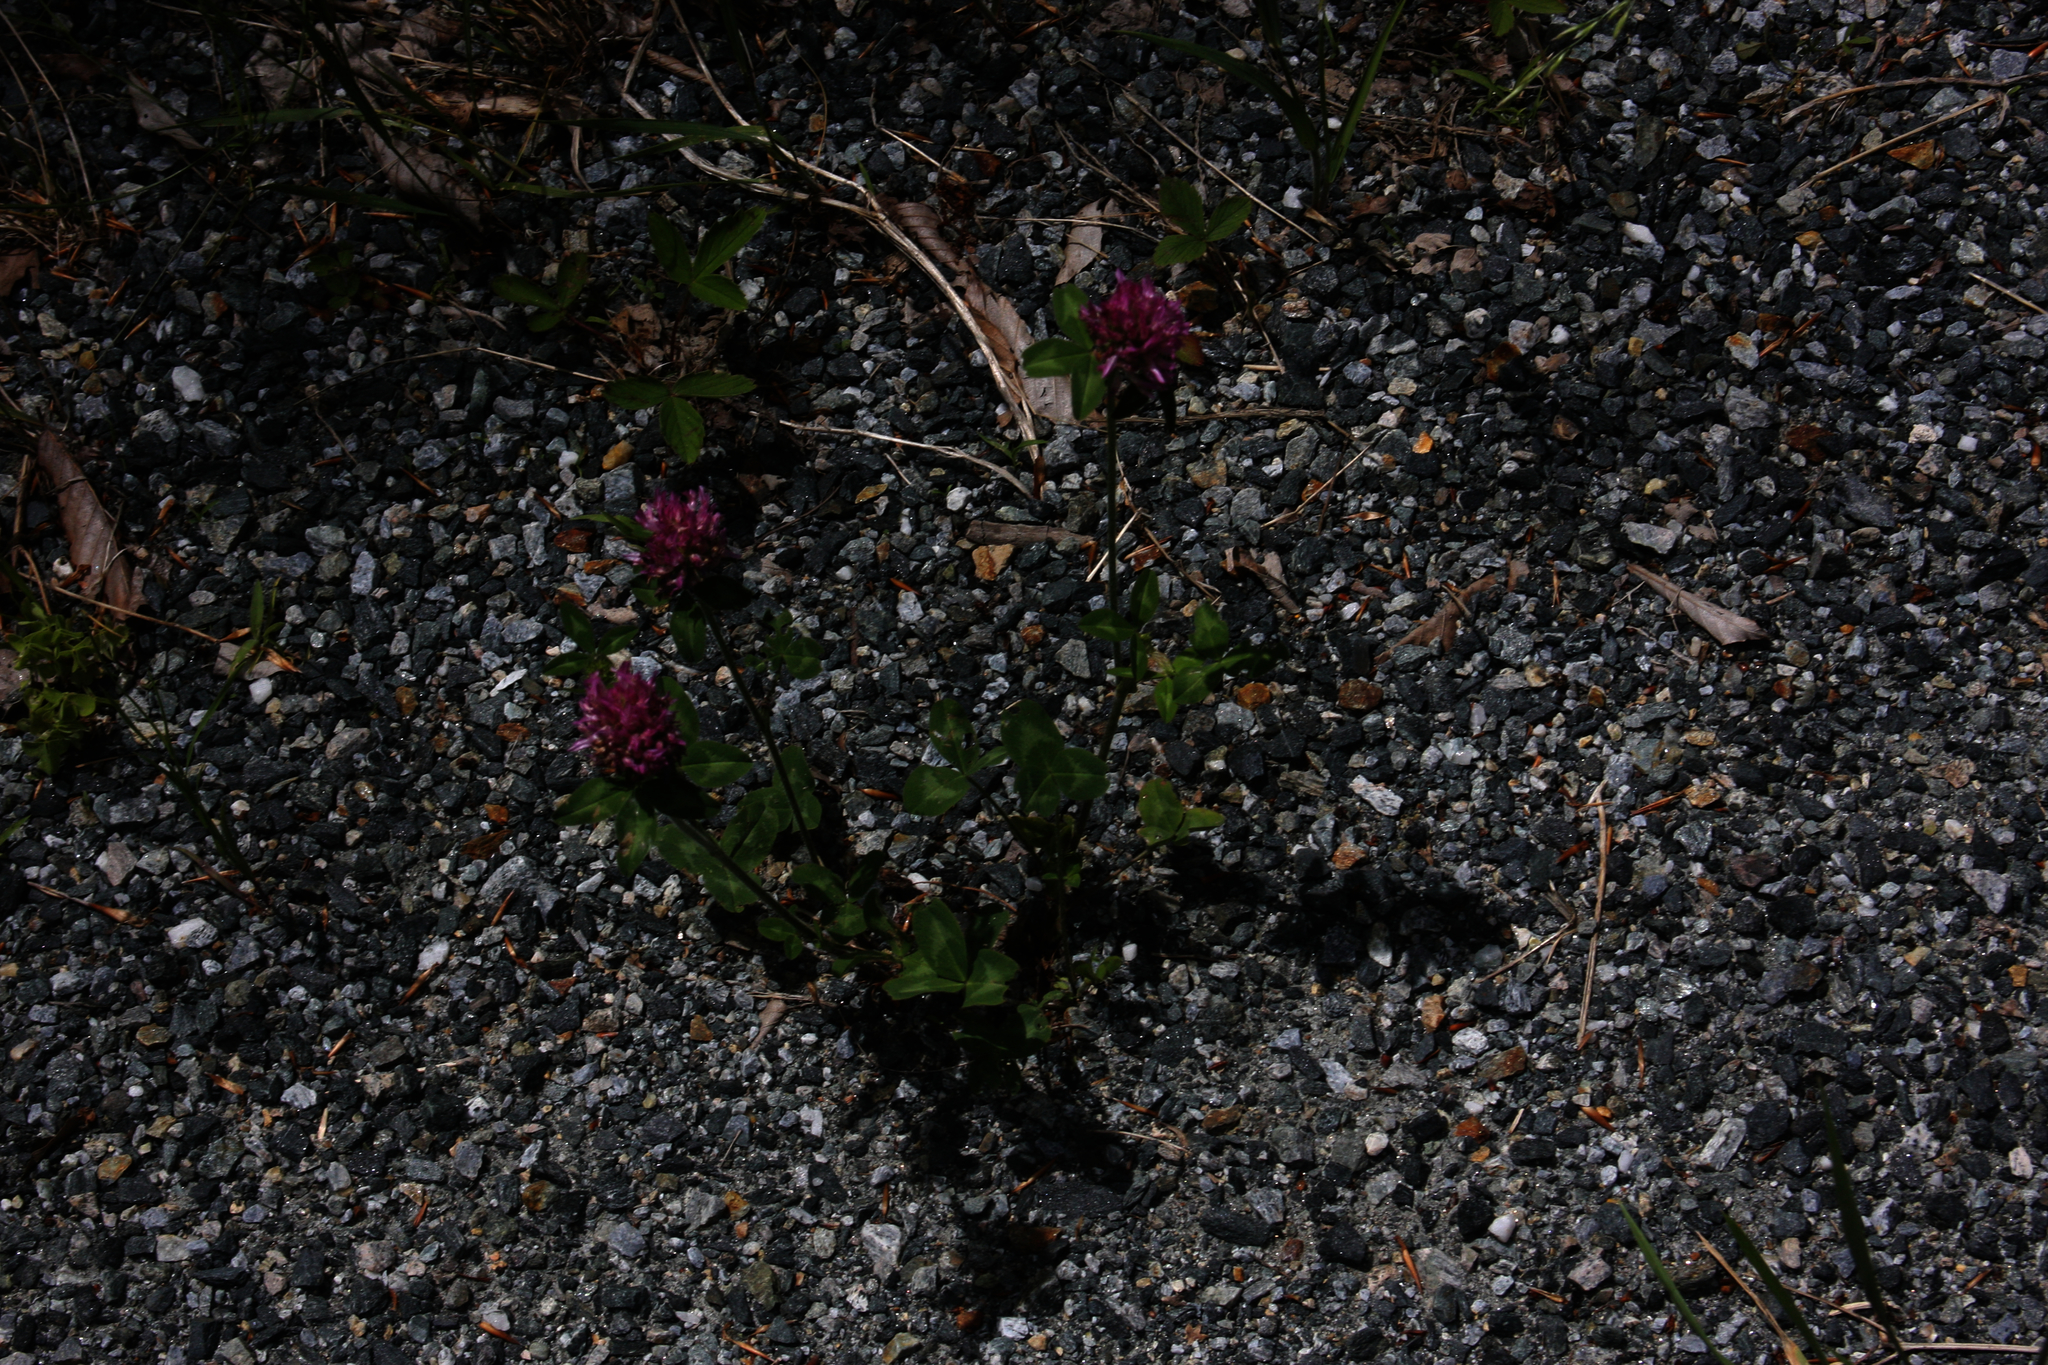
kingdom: Plantae
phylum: Tracheophyta
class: Magnoliopsida
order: Fabales
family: Fabaceae
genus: Trifolium
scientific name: Trifolium pratense
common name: Red clover
